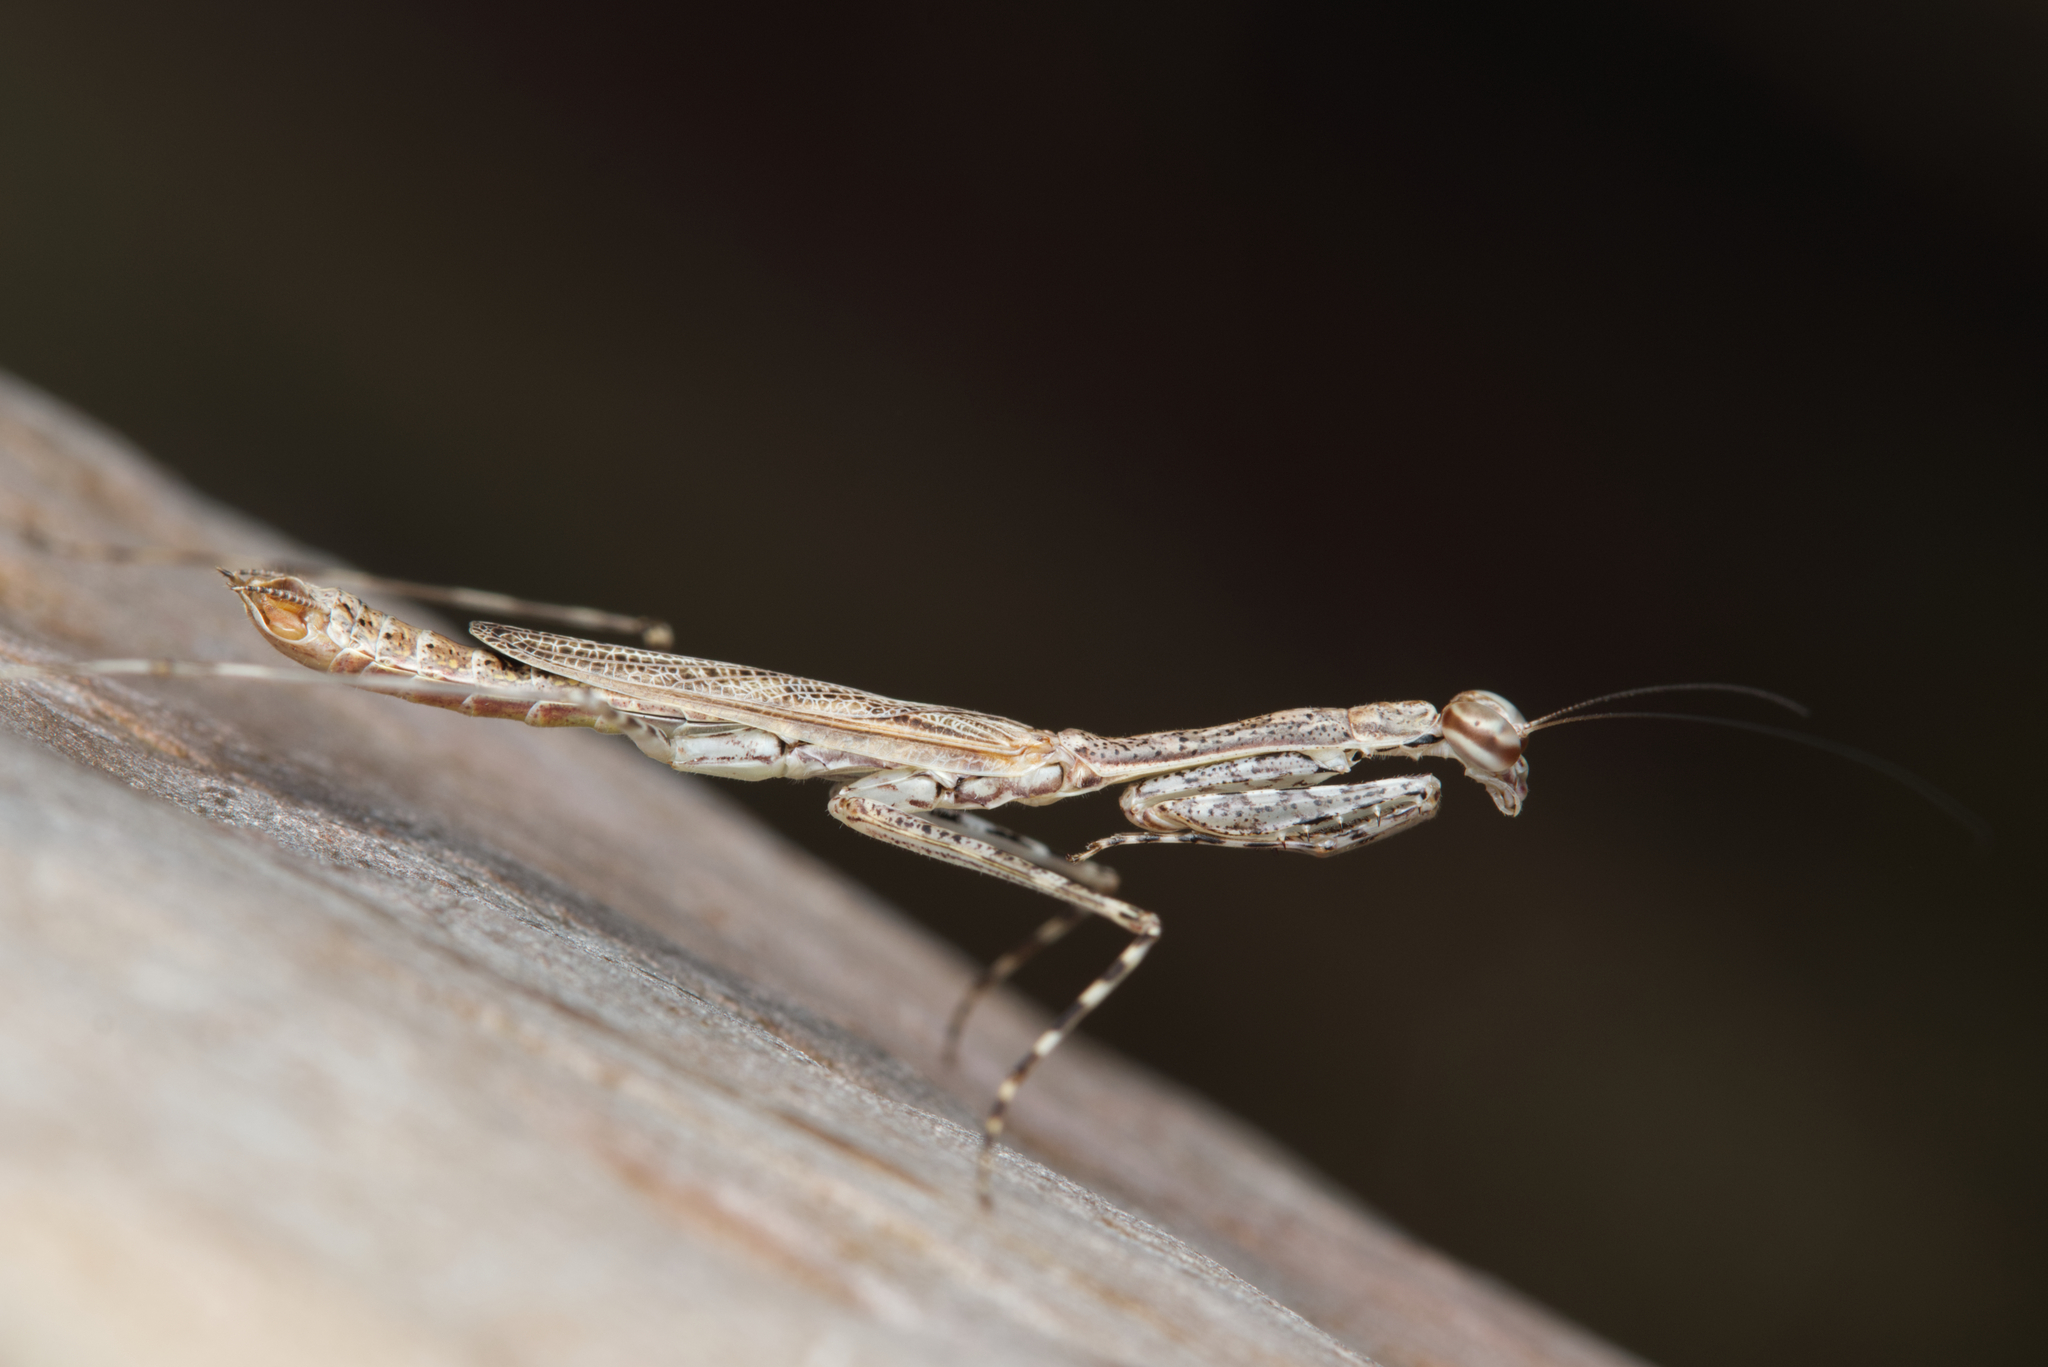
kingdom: Animalia
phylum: Arthropoda
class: Insecta
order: Mantodea
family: Nanomantidae
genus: Ciulfina
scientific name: Ciulfina baldersoni
